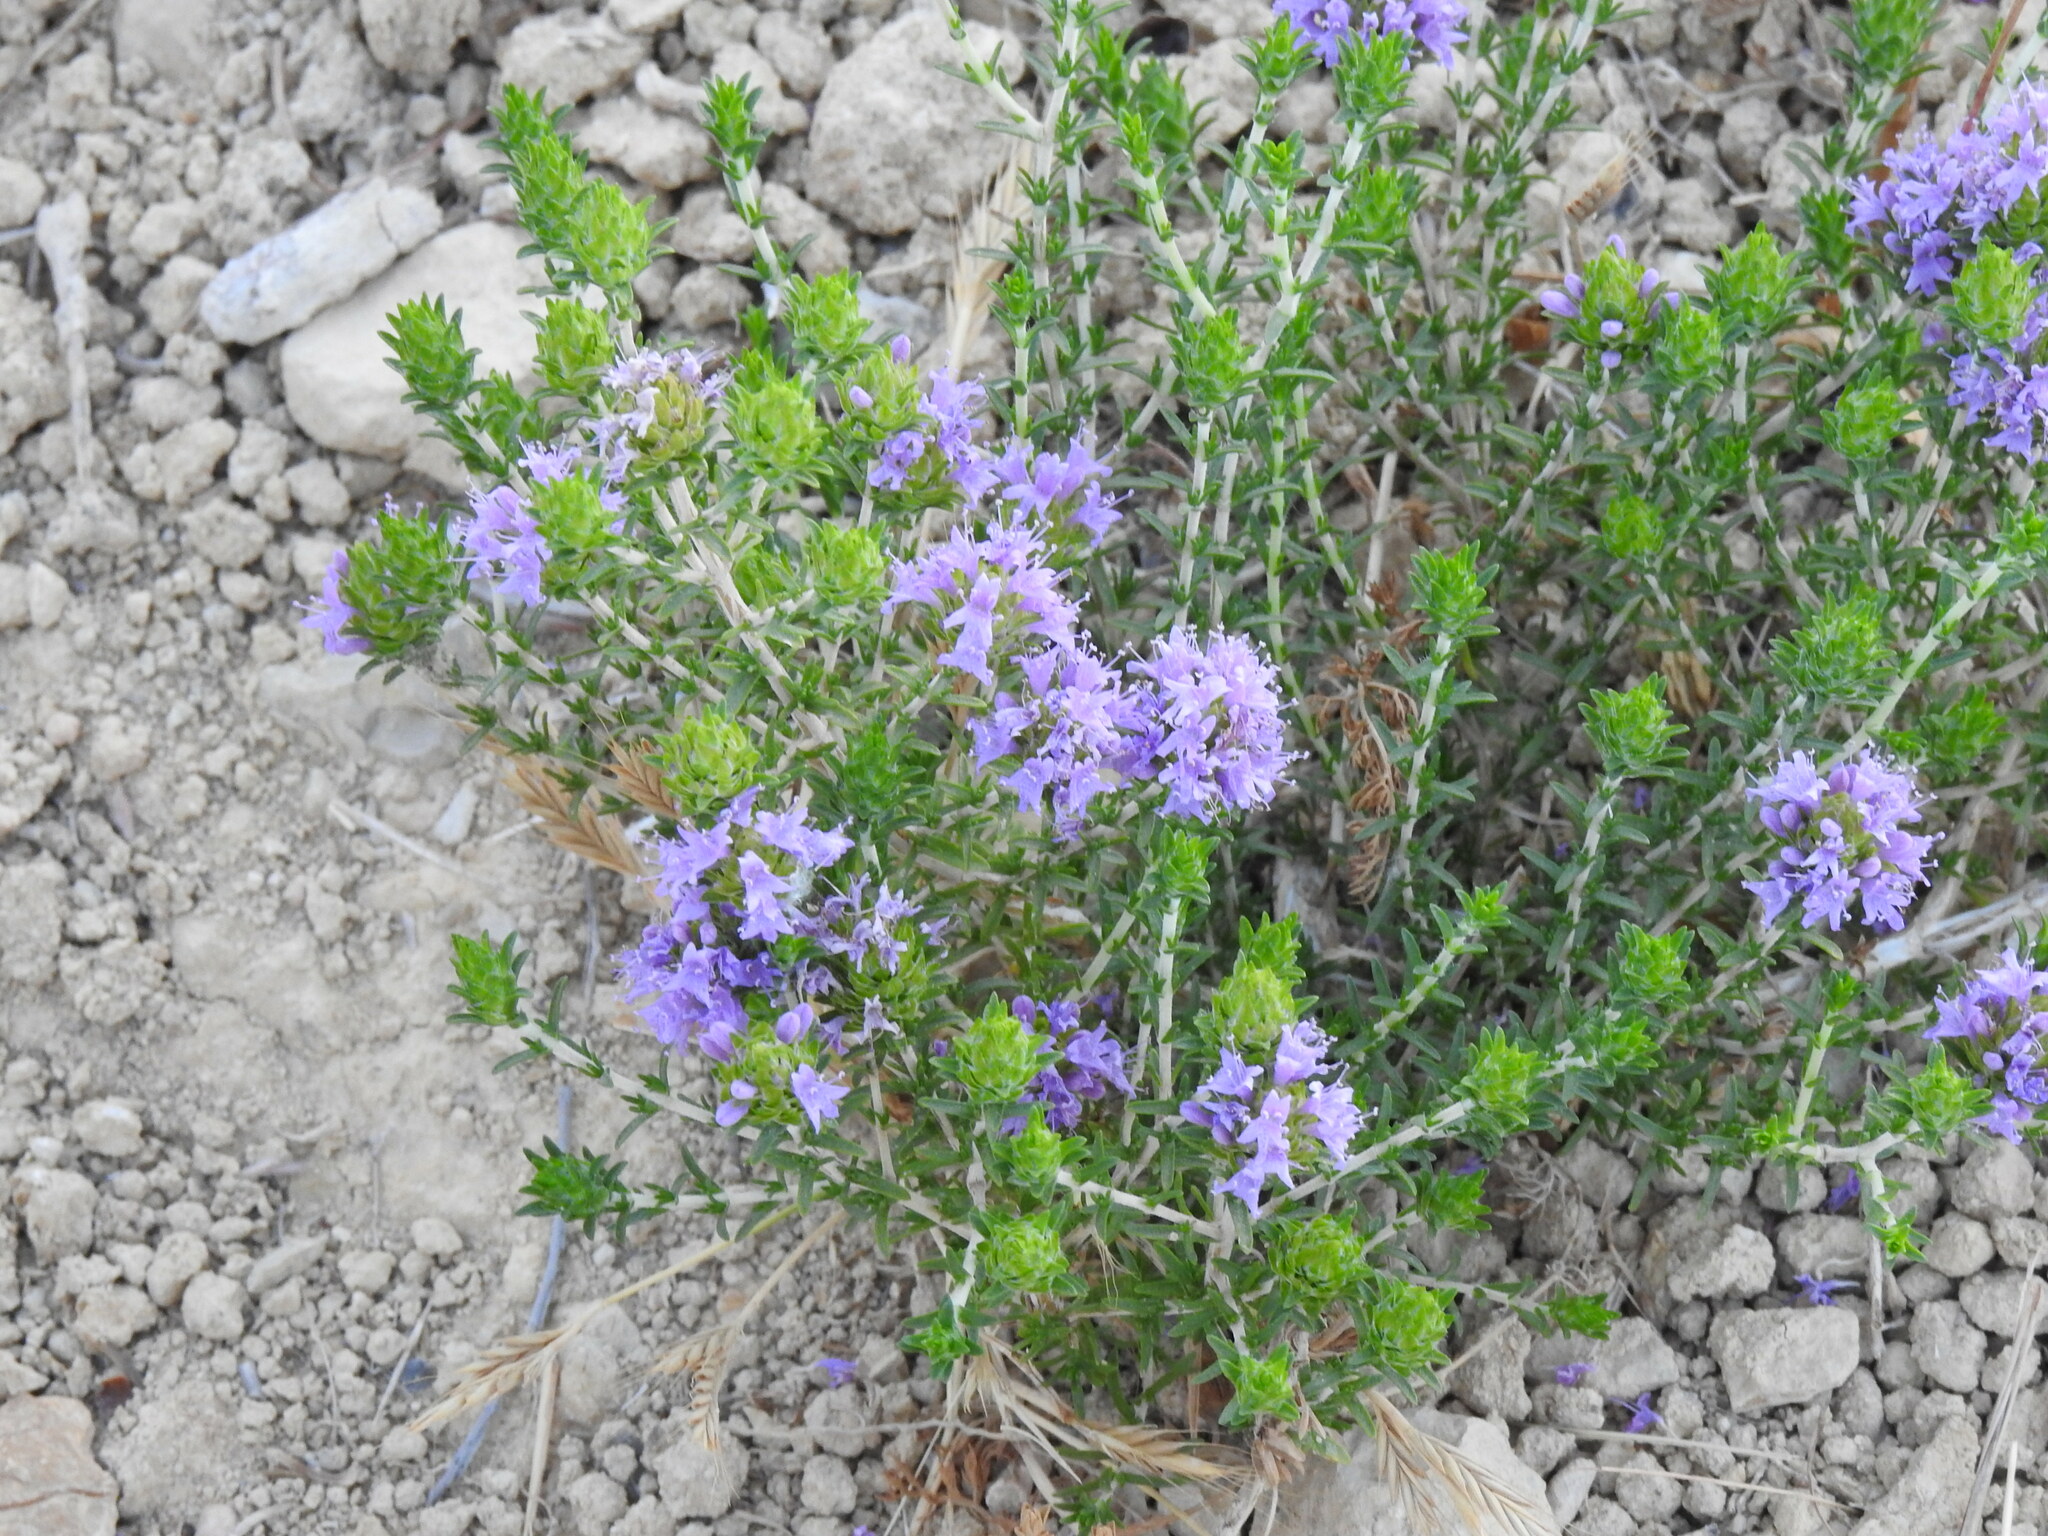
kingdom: Plantae
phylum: Tracheophyta
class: Magnoliopsida
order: Lamiales
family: Lamiaceae
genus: Thymbra
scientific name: Thymbra capitata
